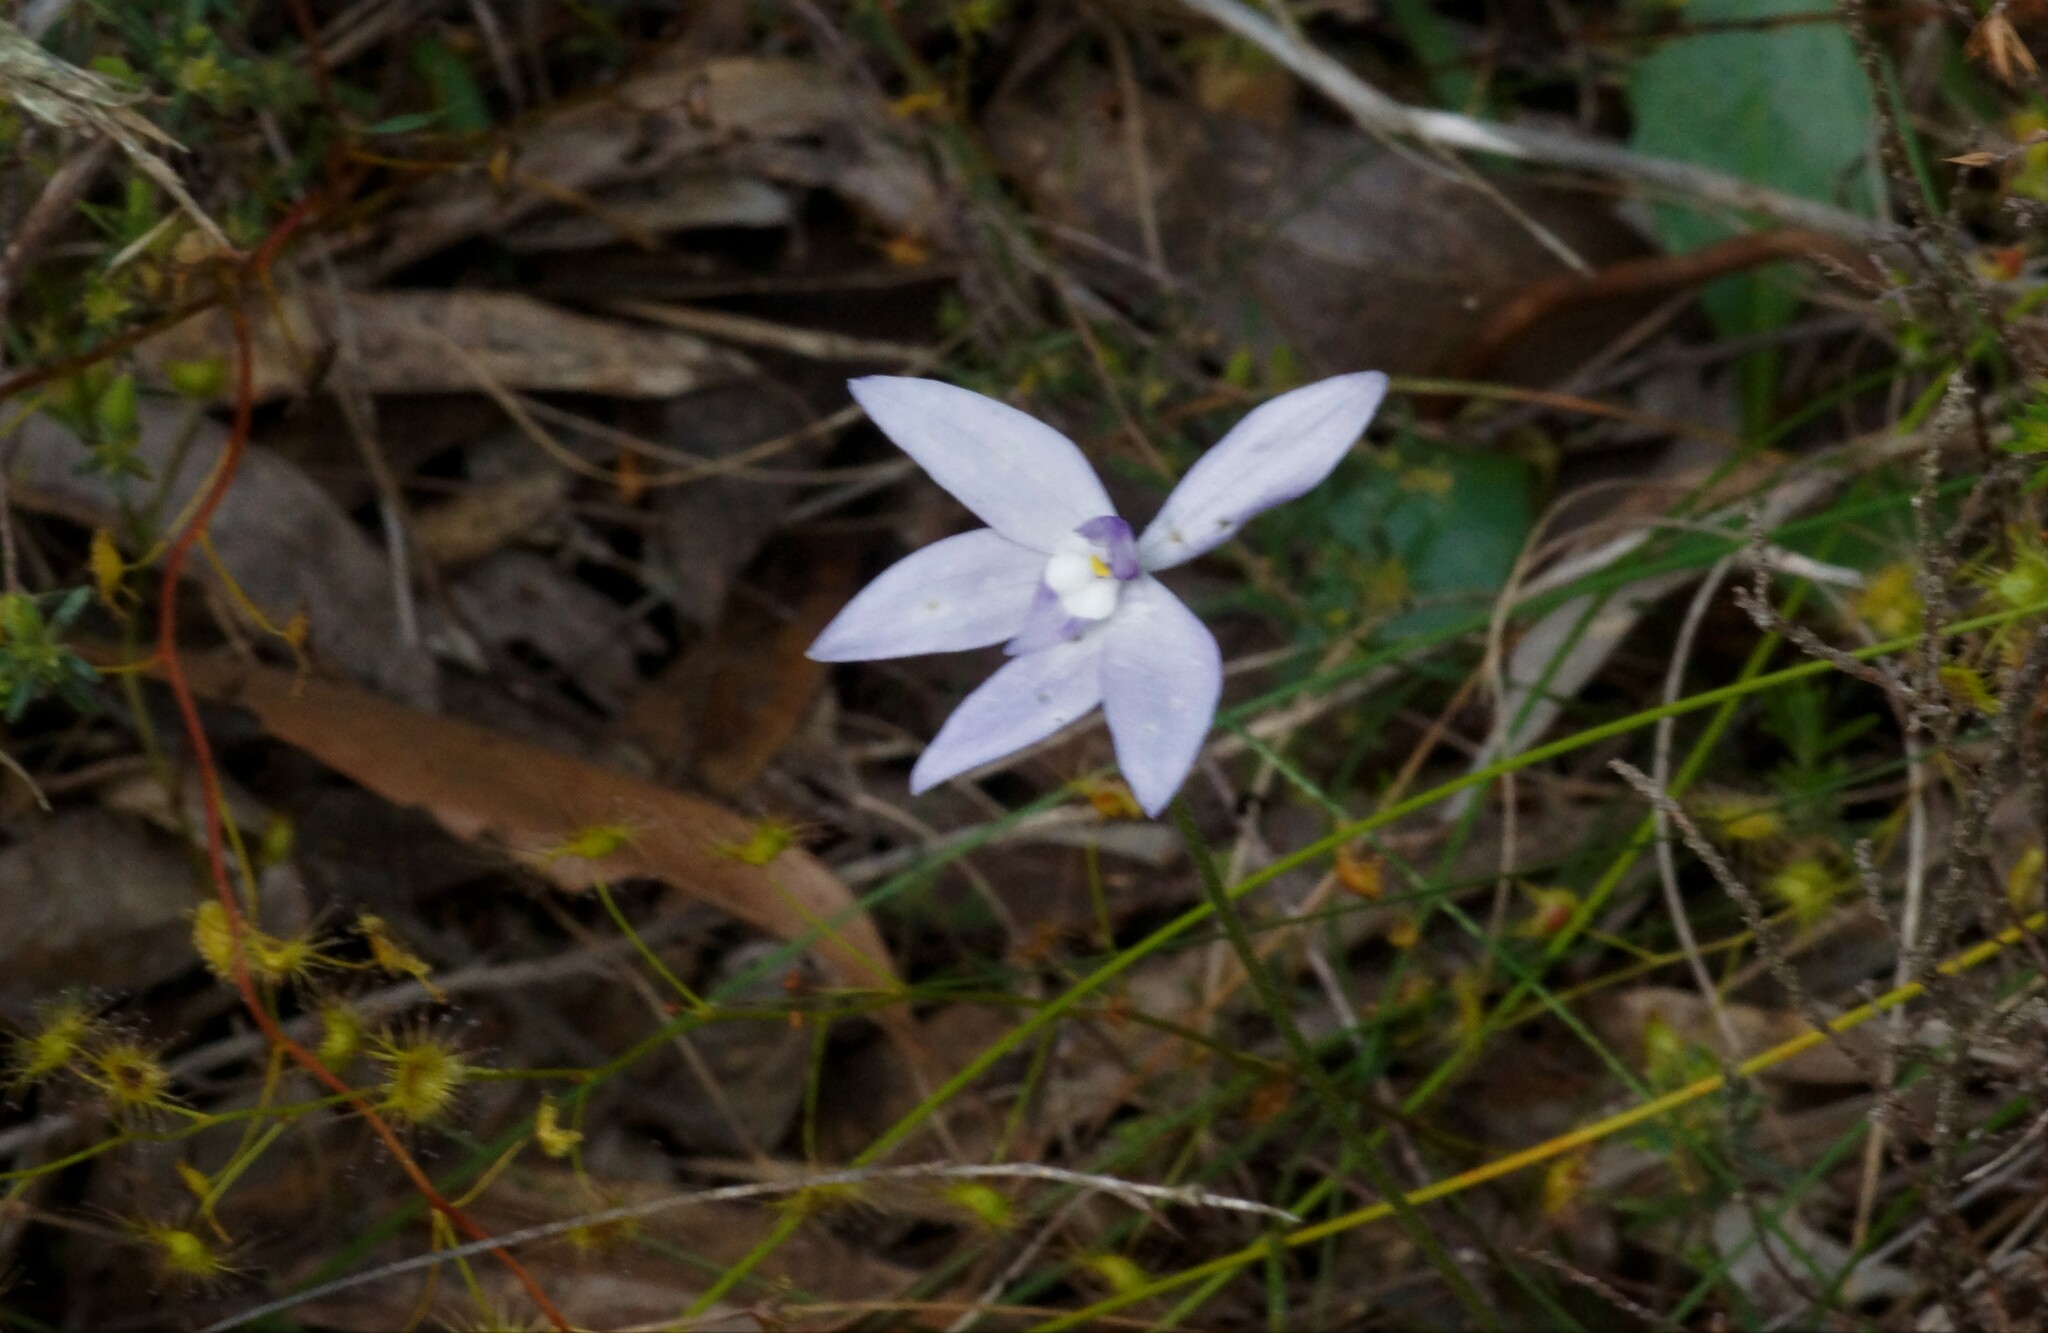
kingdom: Plantae
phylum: Tracheophyta
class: Liliopsida
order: Asparagales
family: Orchidaceae
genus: Caladenia
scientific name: Caladenia major
